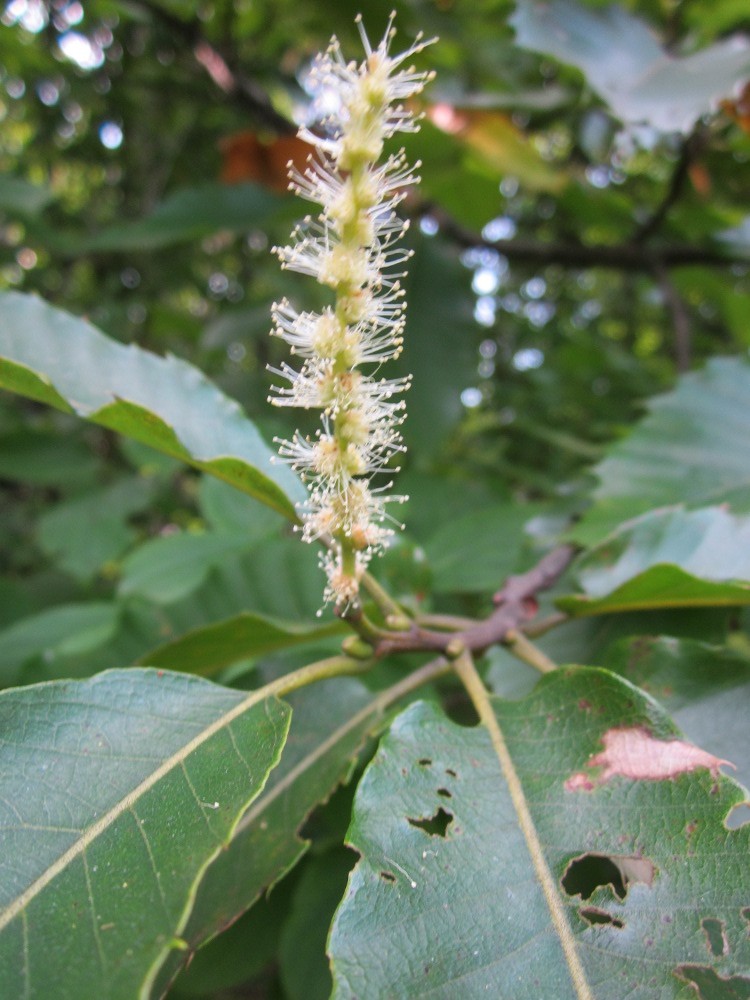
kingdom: Plantae
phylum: Tracheophyta
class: Magnoliopsida
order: Fagales
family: Fagaceae
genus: Castanea
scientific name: Castanea sativa
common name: Sweet chestnut
